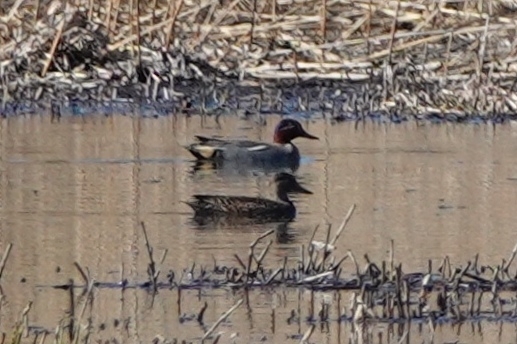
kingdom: Animalia
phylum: Chordata
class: Aves
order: Anseriformes
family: Anatidae
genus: Anas
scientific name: Anas crecca
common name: Eurasian teal
